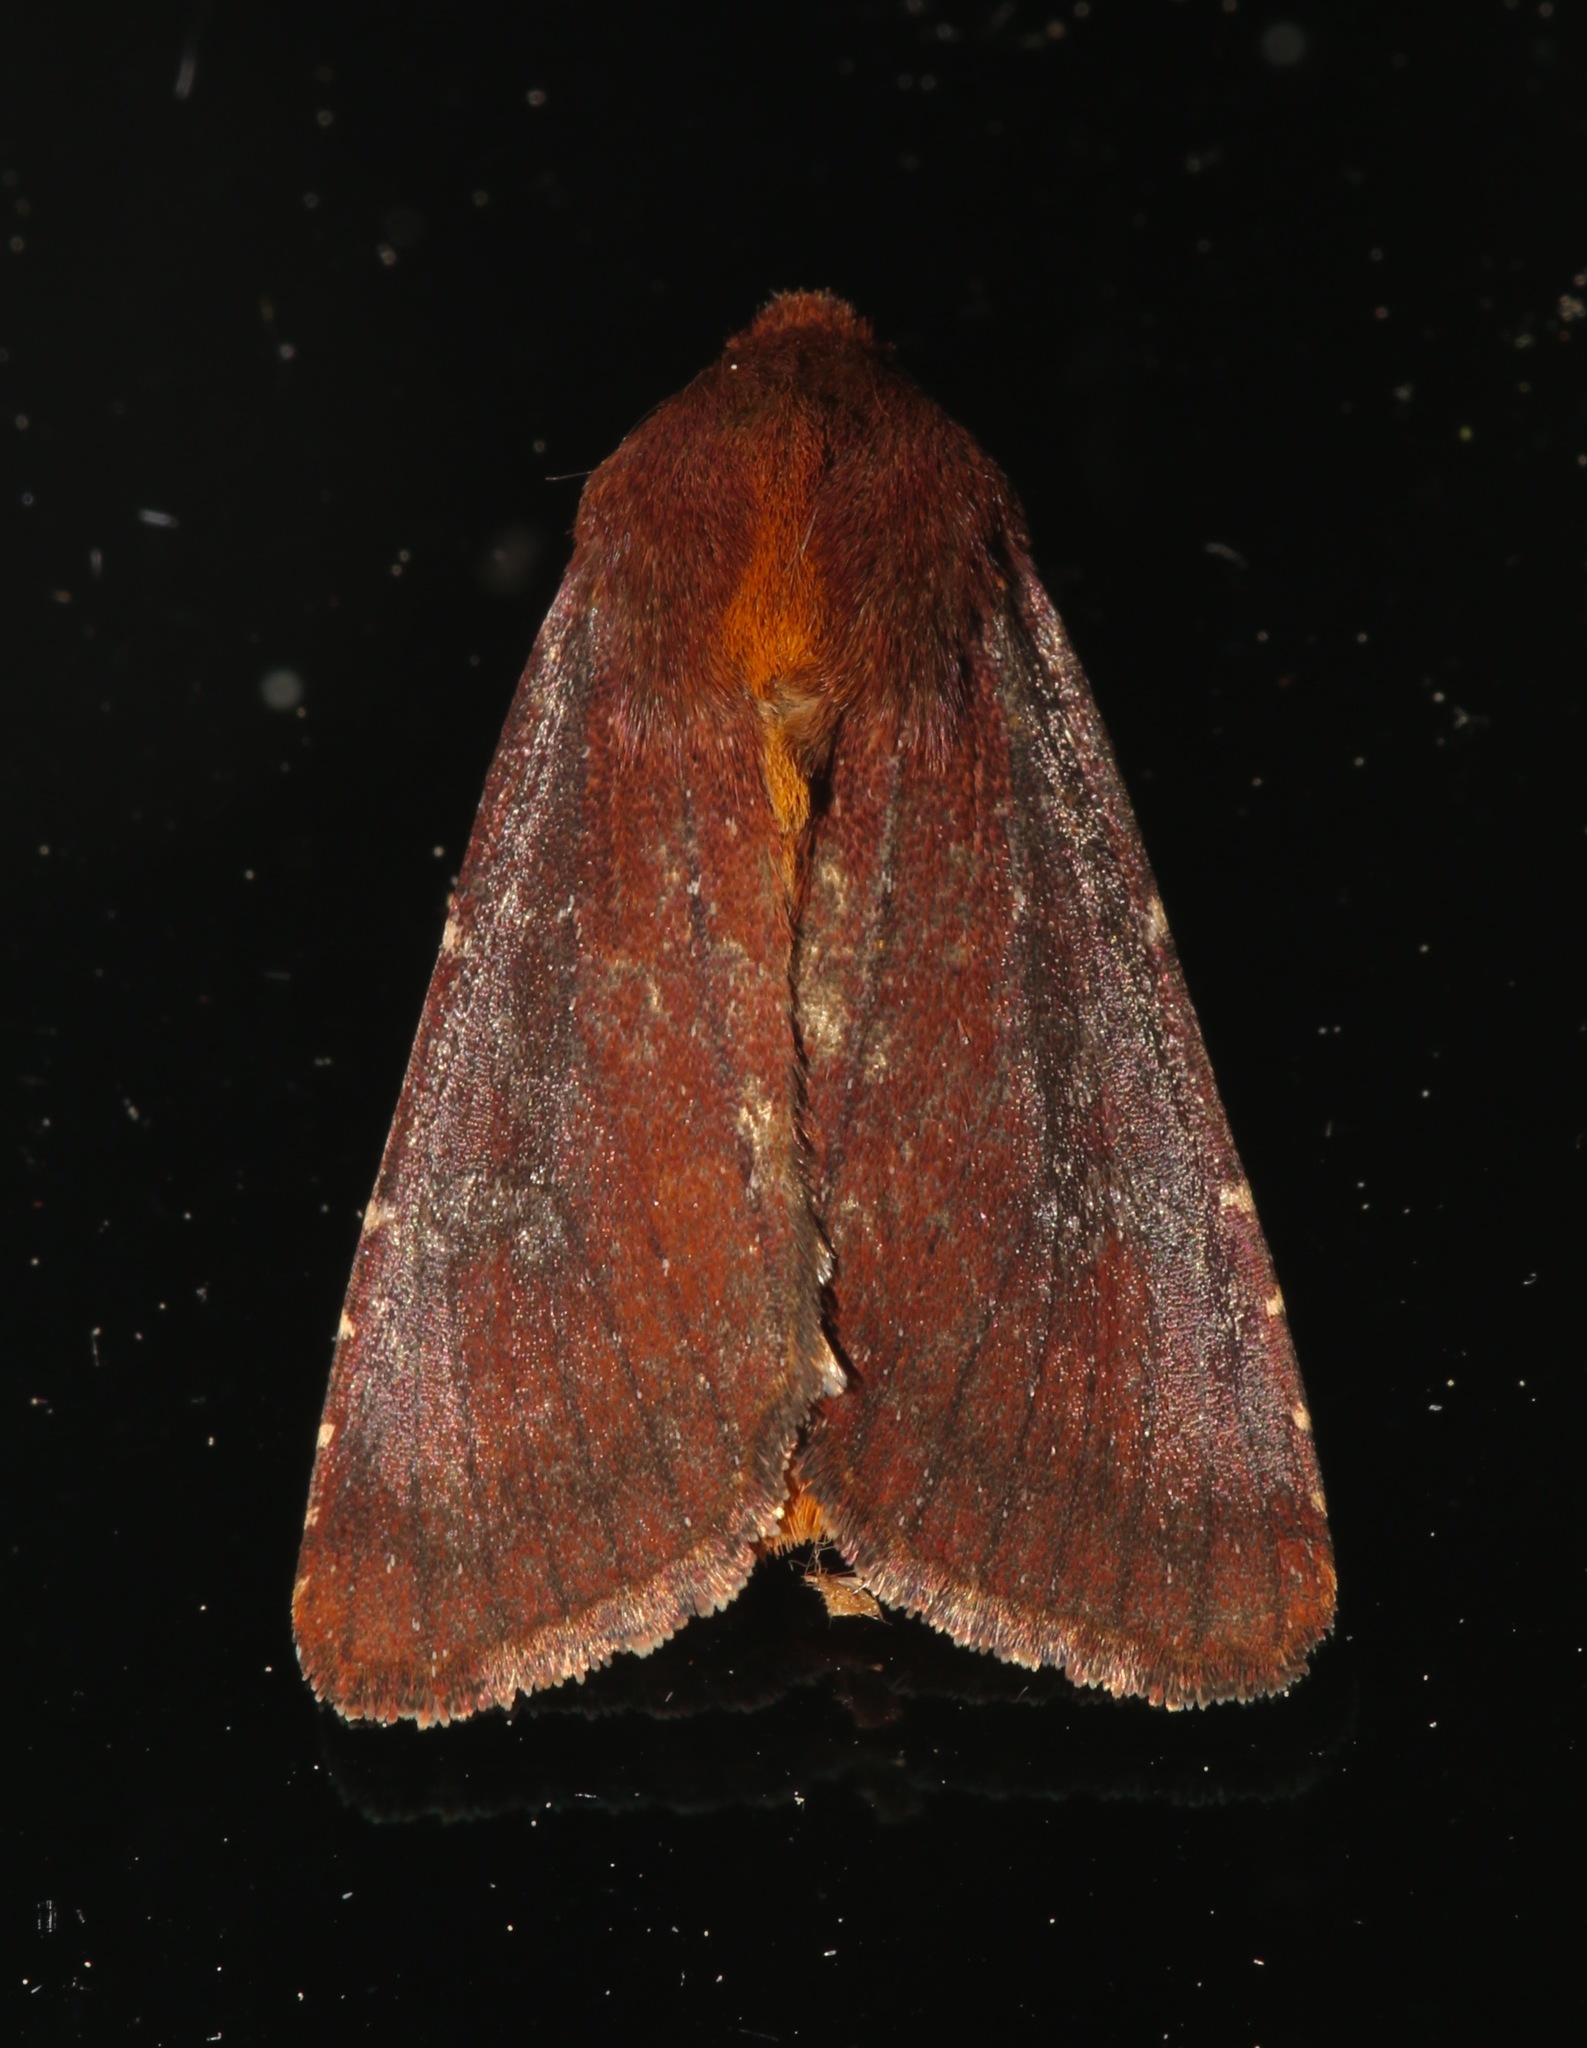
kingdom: Animalia
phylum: Arthropoda
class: Insecta
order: Lepidoptera
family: Noctuidae
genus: Sideridis
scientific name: Sideridis maryx
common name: Maroonwing moth
